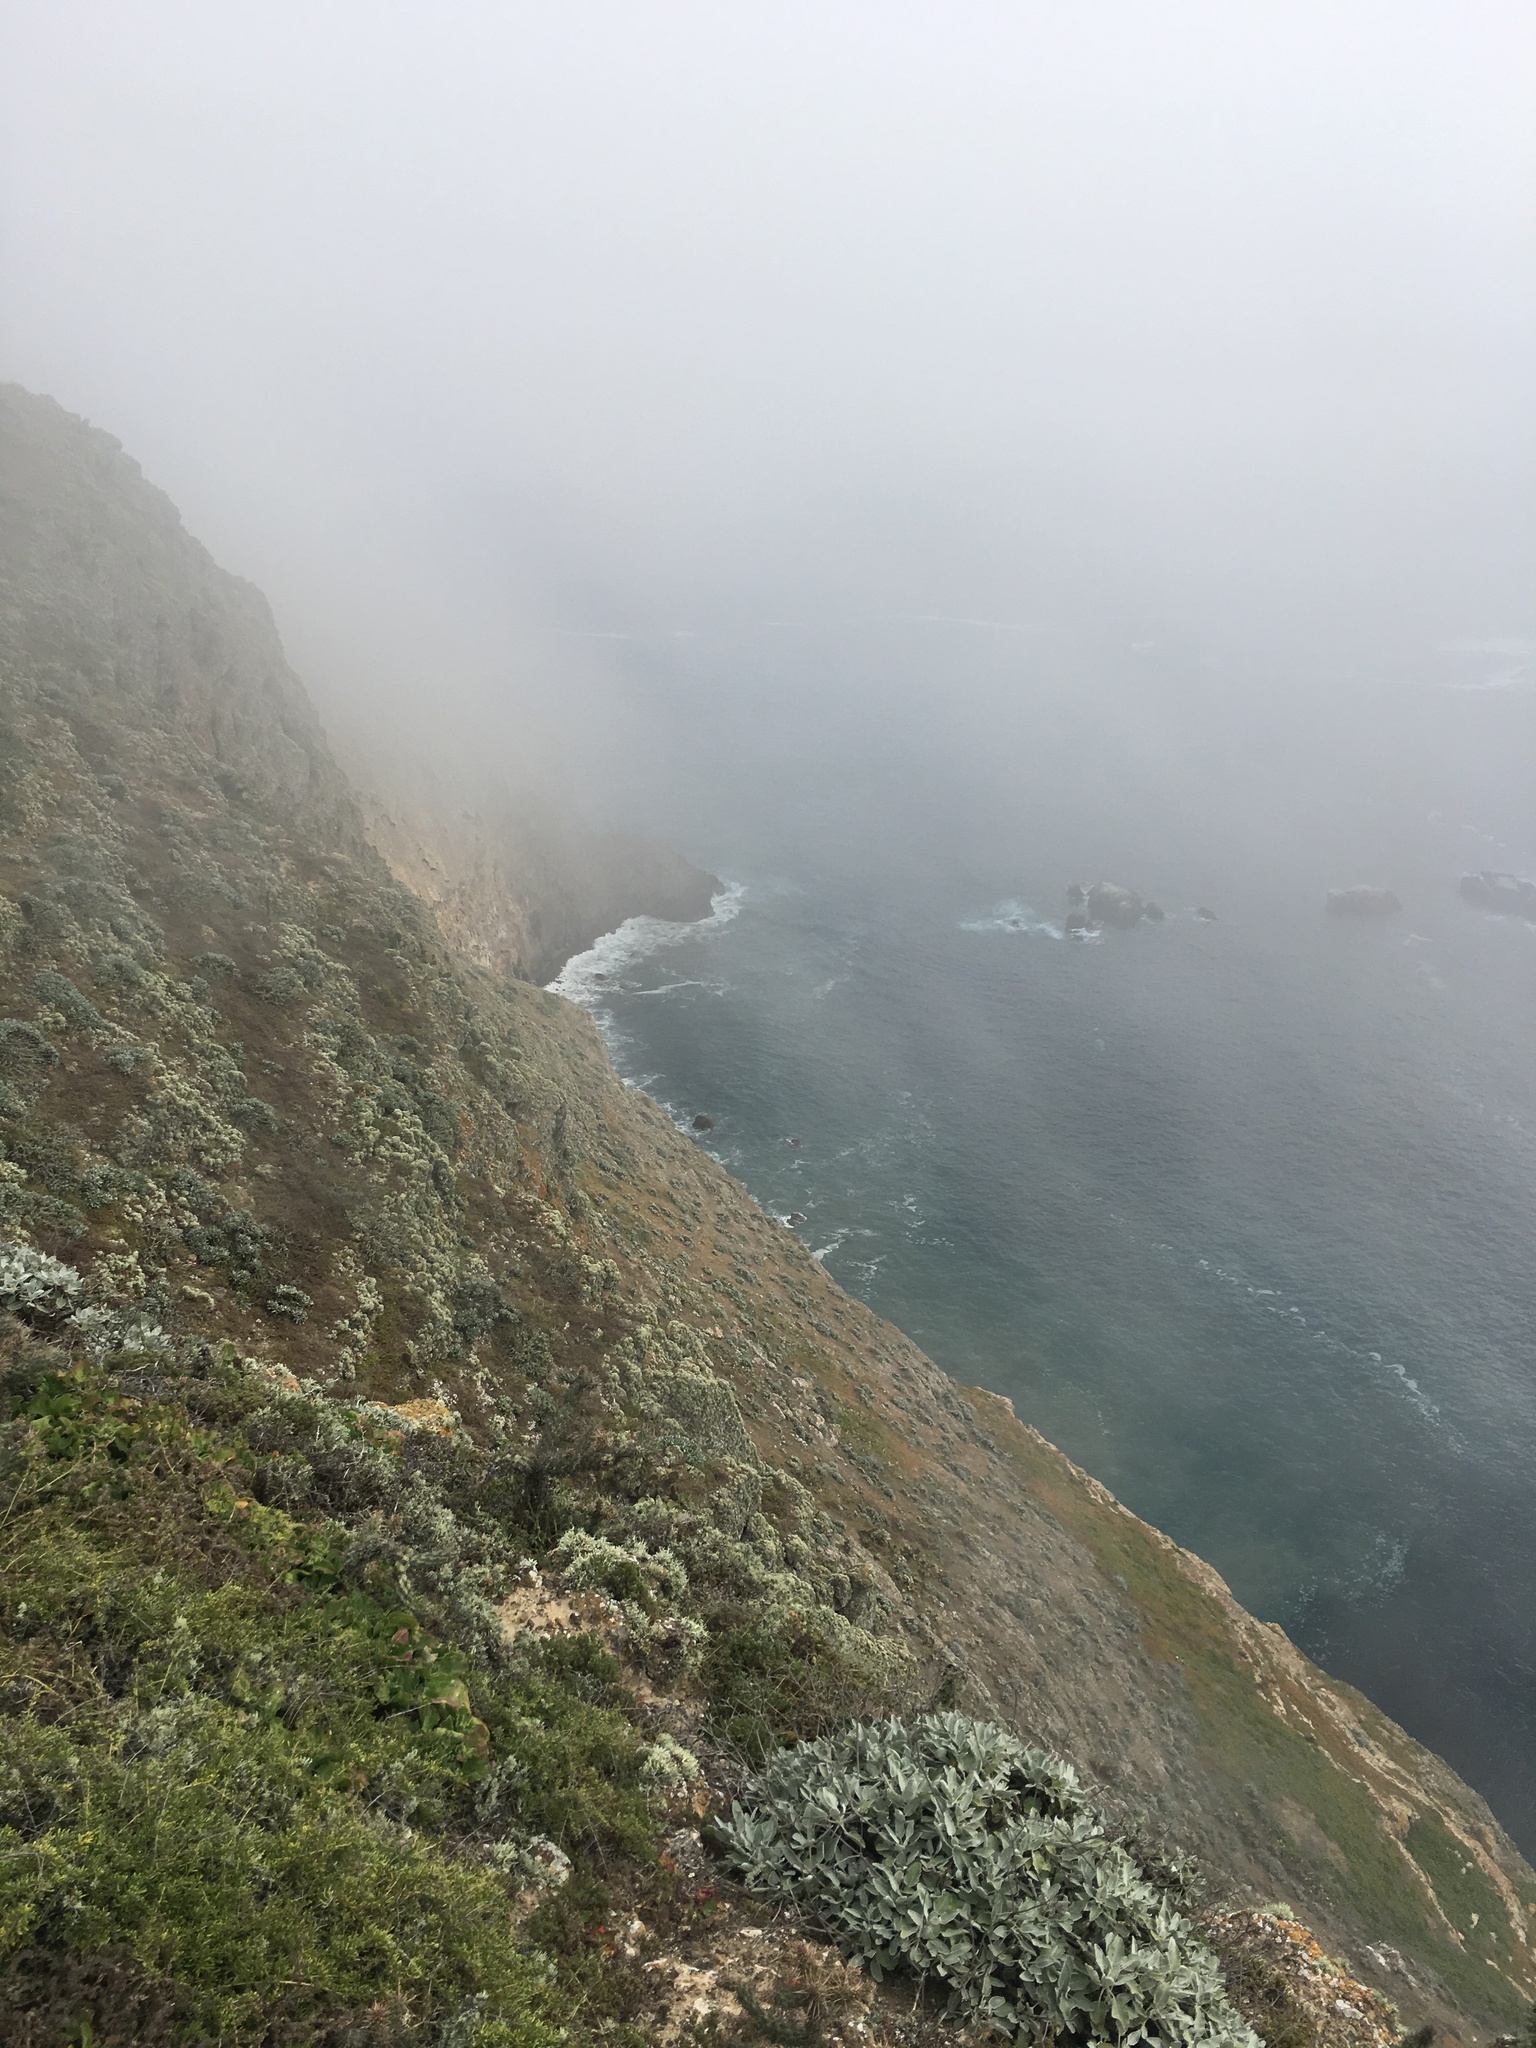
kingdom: Plantae
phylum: Tracheophyta
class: Magnoliopsida
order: Caryophyllales
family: Polygonaceae
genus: Eriogonum
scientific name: Eriogonum giganteum
